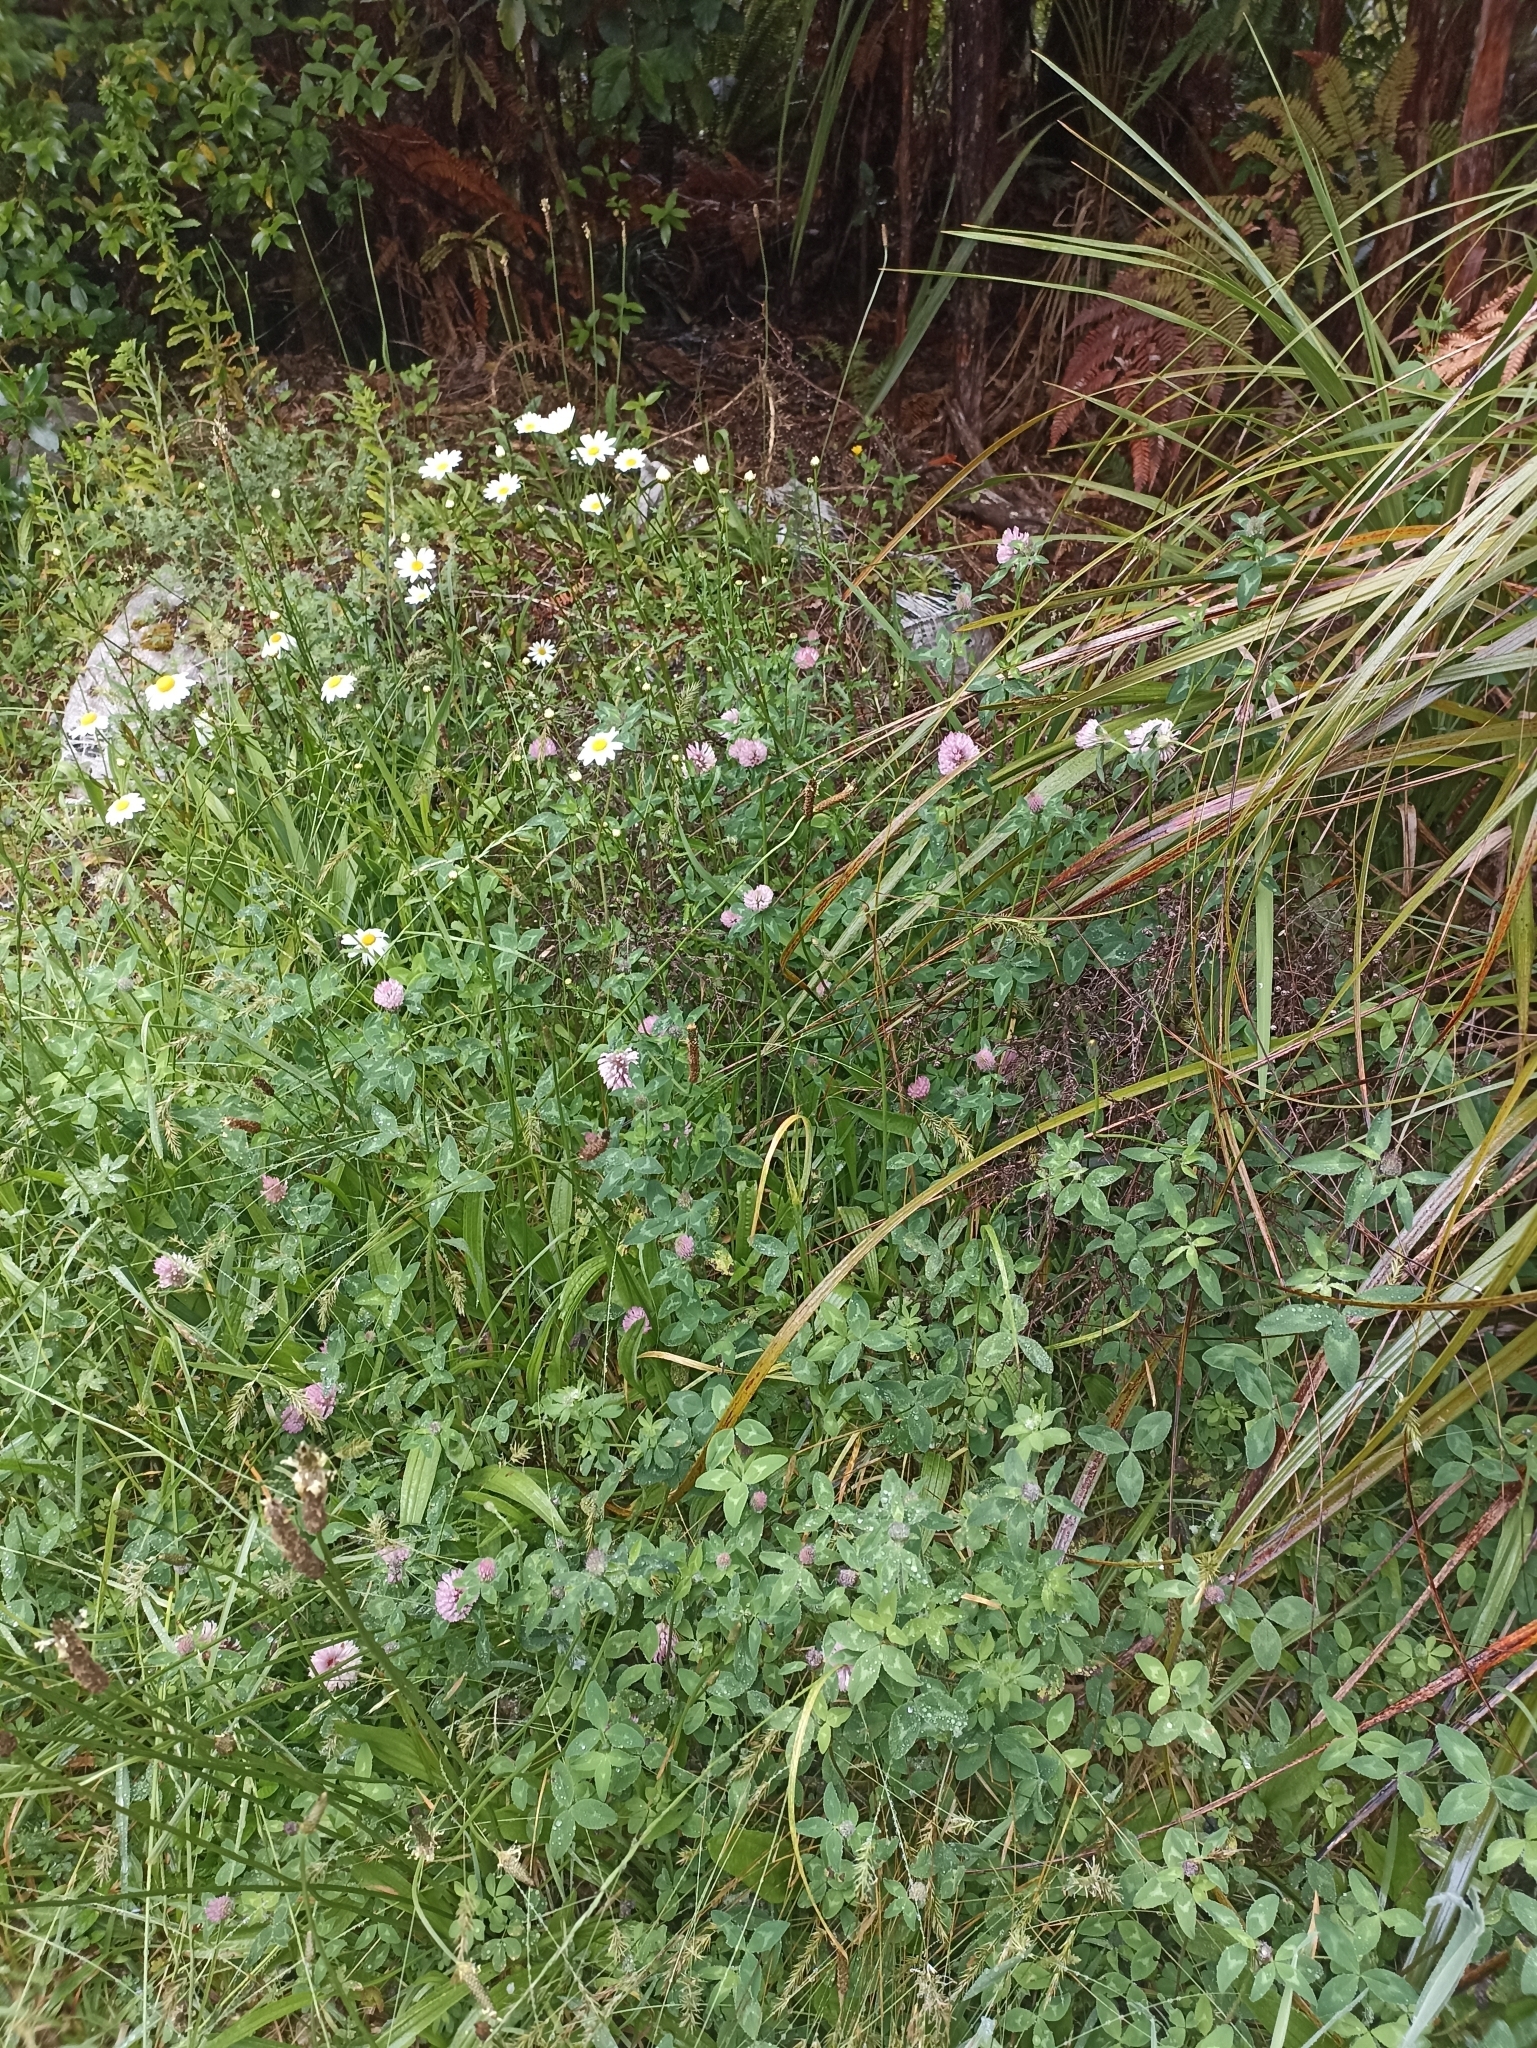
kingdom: Plantae
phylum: Tracheophyta
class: Magnoliopsida
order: Fabales
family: Fabaceae
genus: Trifolium
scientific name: Trifolium pratense
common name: Red clover
